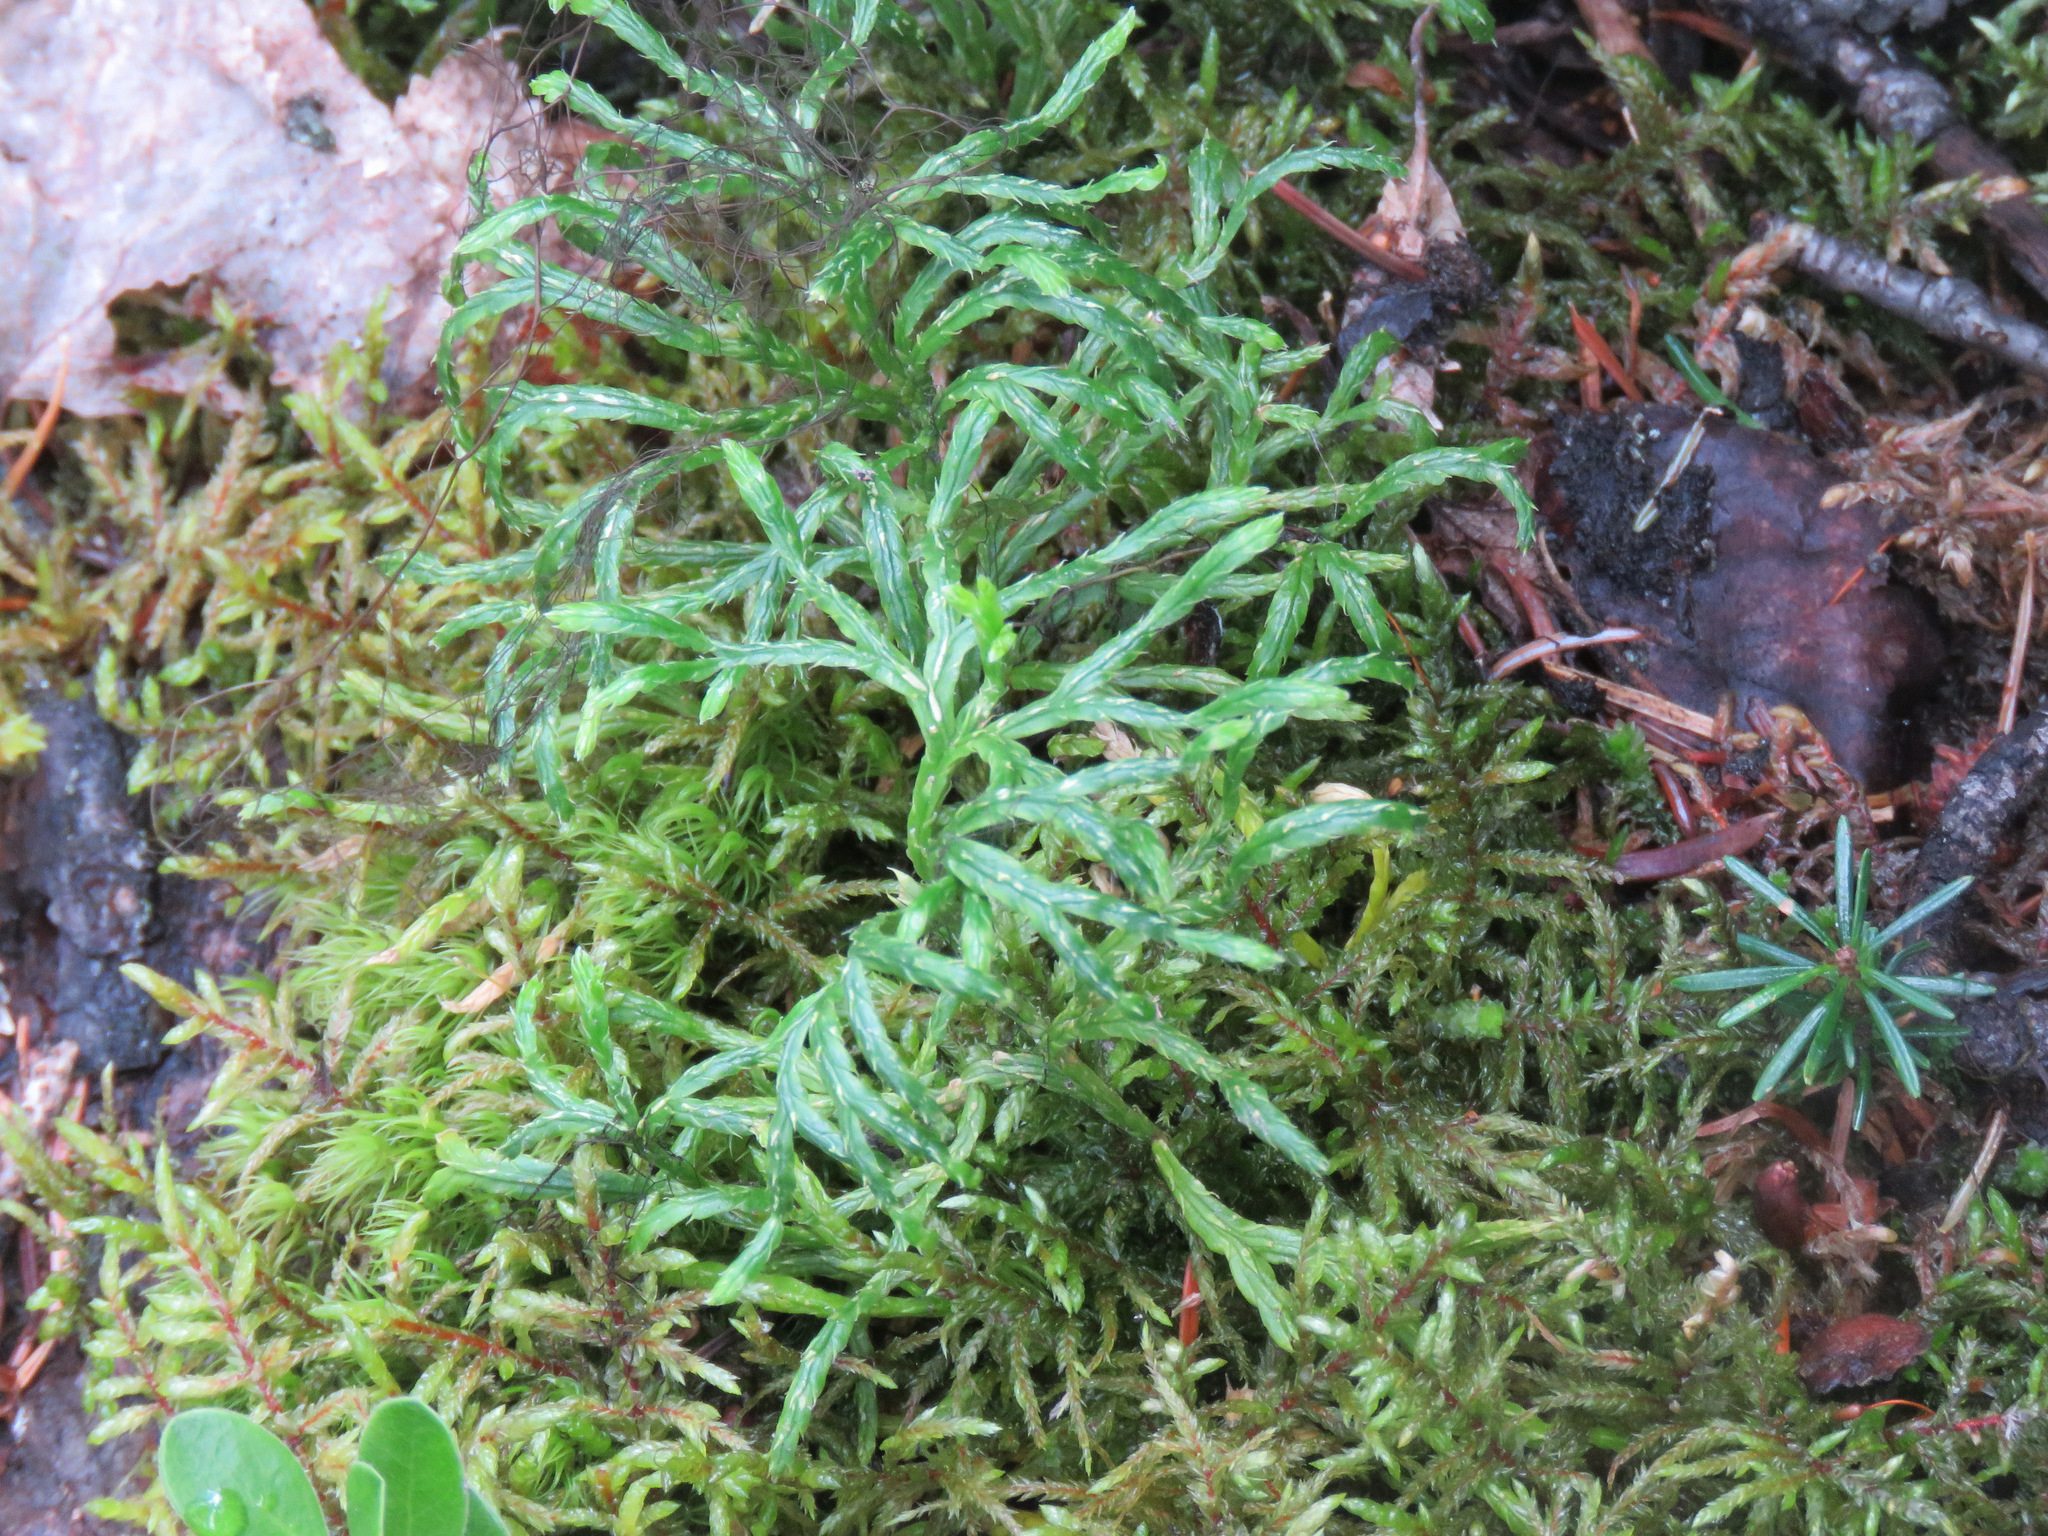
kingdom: Plantae
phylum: Tracheophyta
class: Lycopodiopsida
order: Lycopodiales
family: Lycopodiaceae
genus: Diphasiastrum
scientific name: Diphasiastrum complanatum
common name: Northern running-pine
